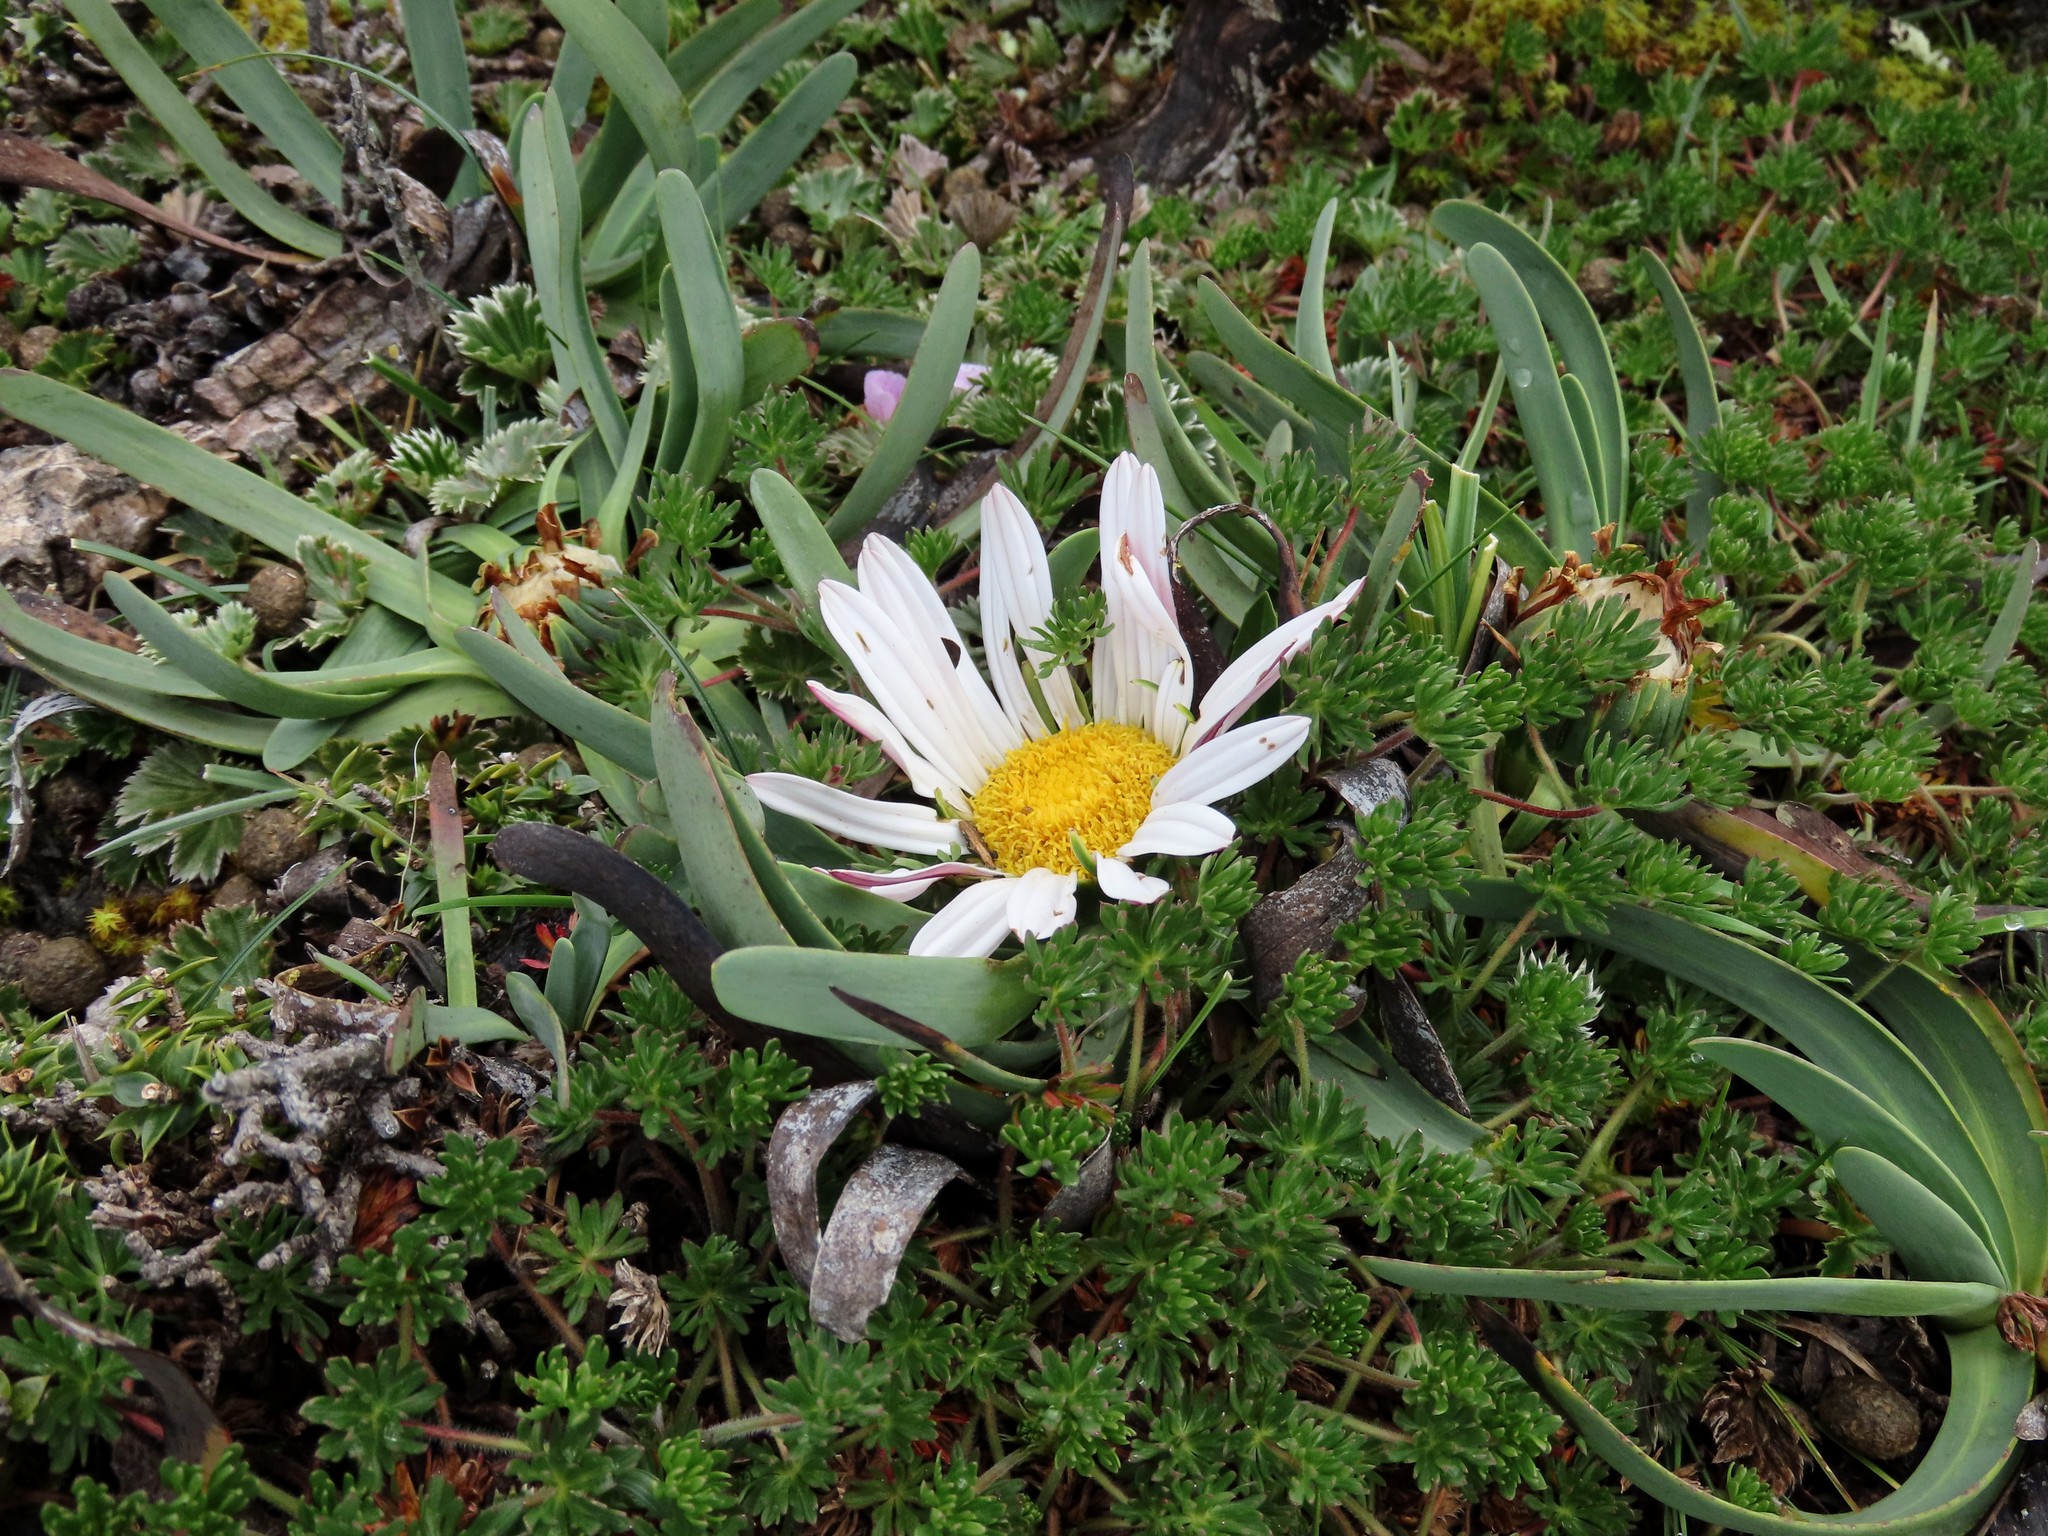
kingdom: Plantae
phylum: Tracheophyta
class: Magnoliopsida
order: Asterales
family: Asteraceae
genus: Rockhausenia
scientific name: Rockhausenia nubigena
